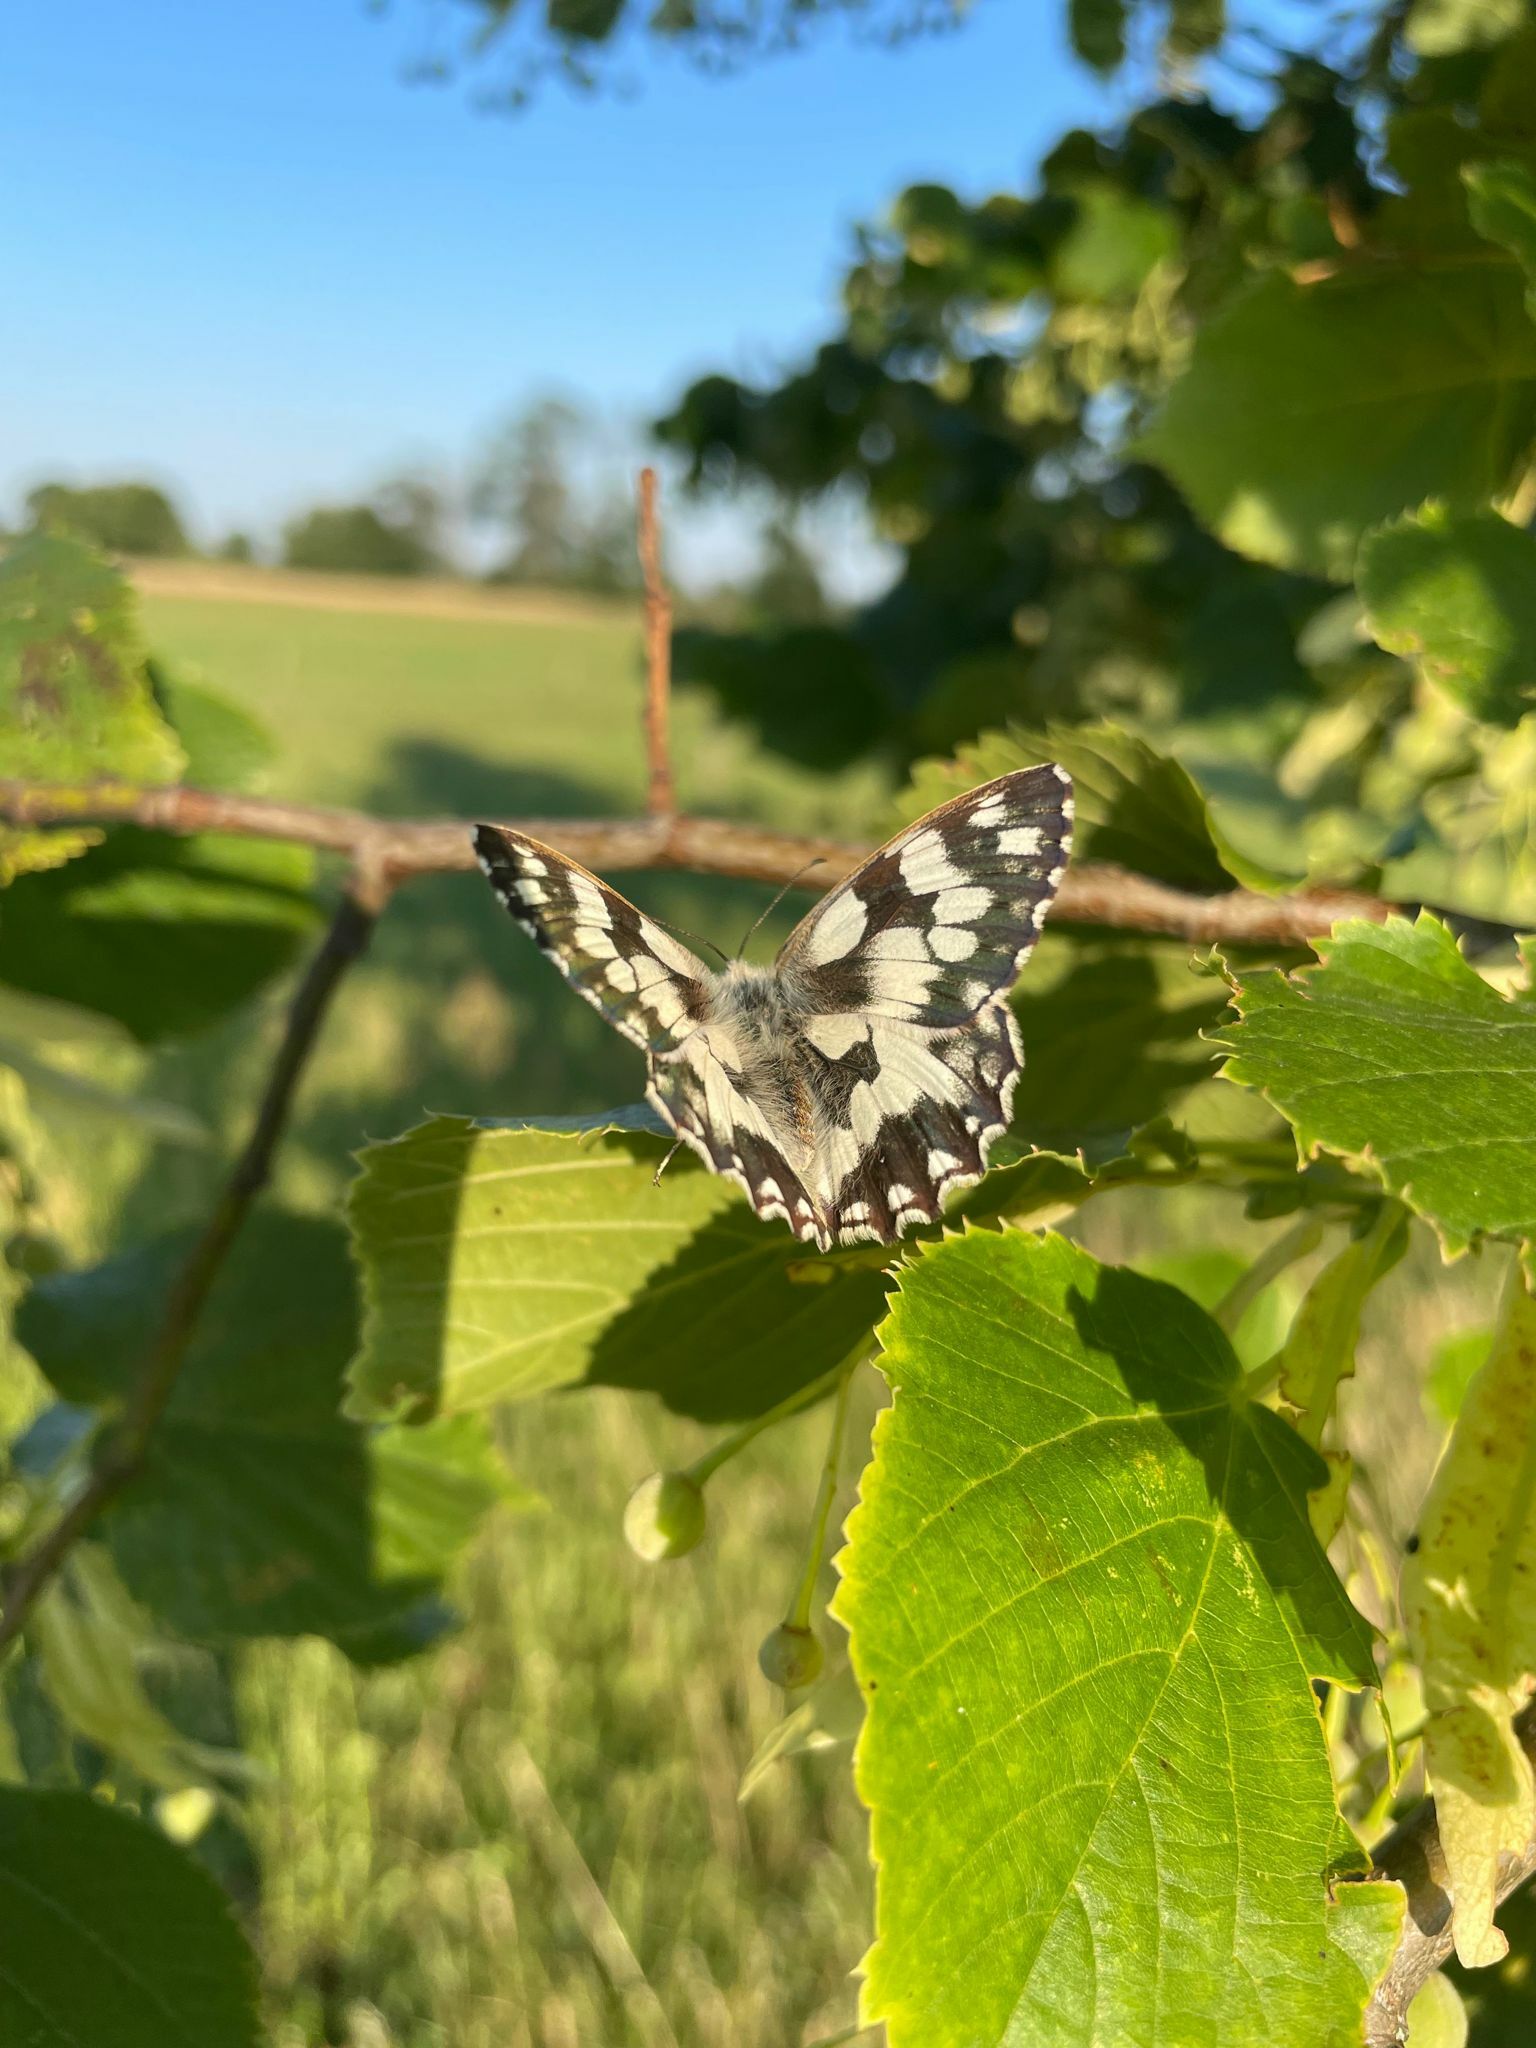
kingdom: Animalia
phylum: Arthropoda
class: Insecta
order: Lepidoptera
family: Nymphalidae
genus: Melanargia
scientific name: Melanargia galathea
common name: Marbled white
